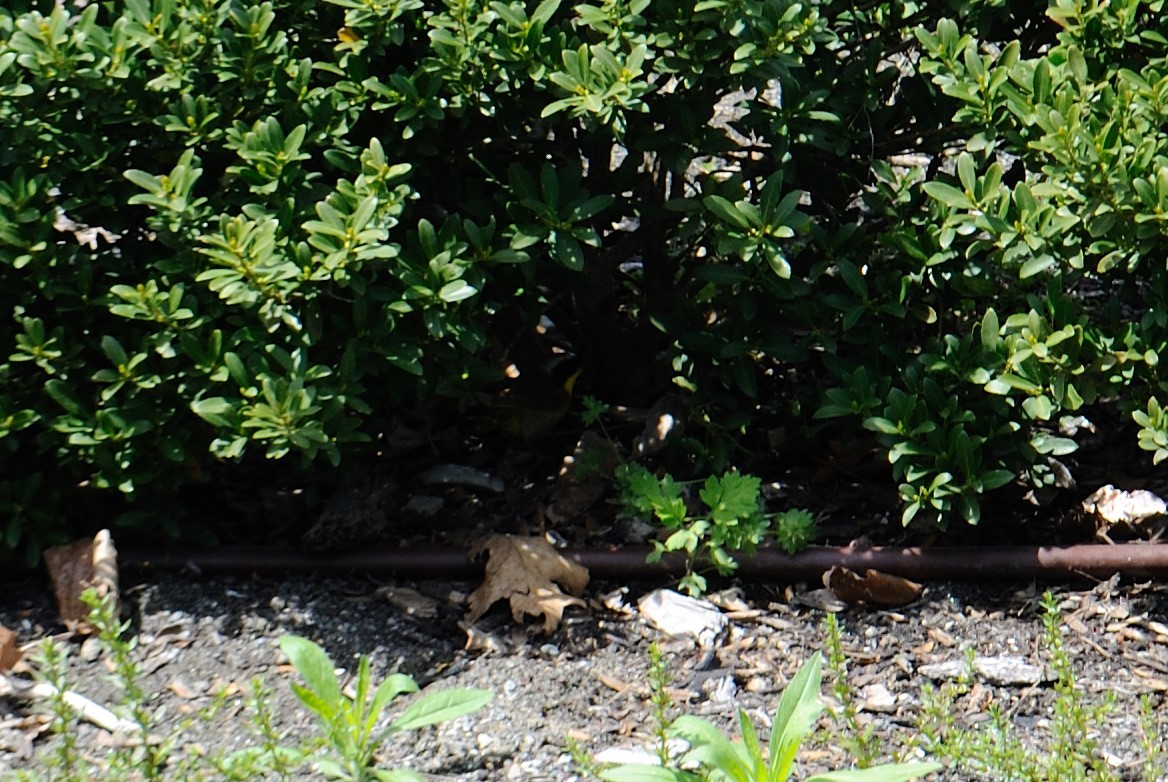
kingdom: Animalia
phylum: Chordata
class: Aves
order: Passeriformes
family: Parulidae
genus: Geothlypis
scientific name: Geothlypis trichas
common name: Common yellowthroat
